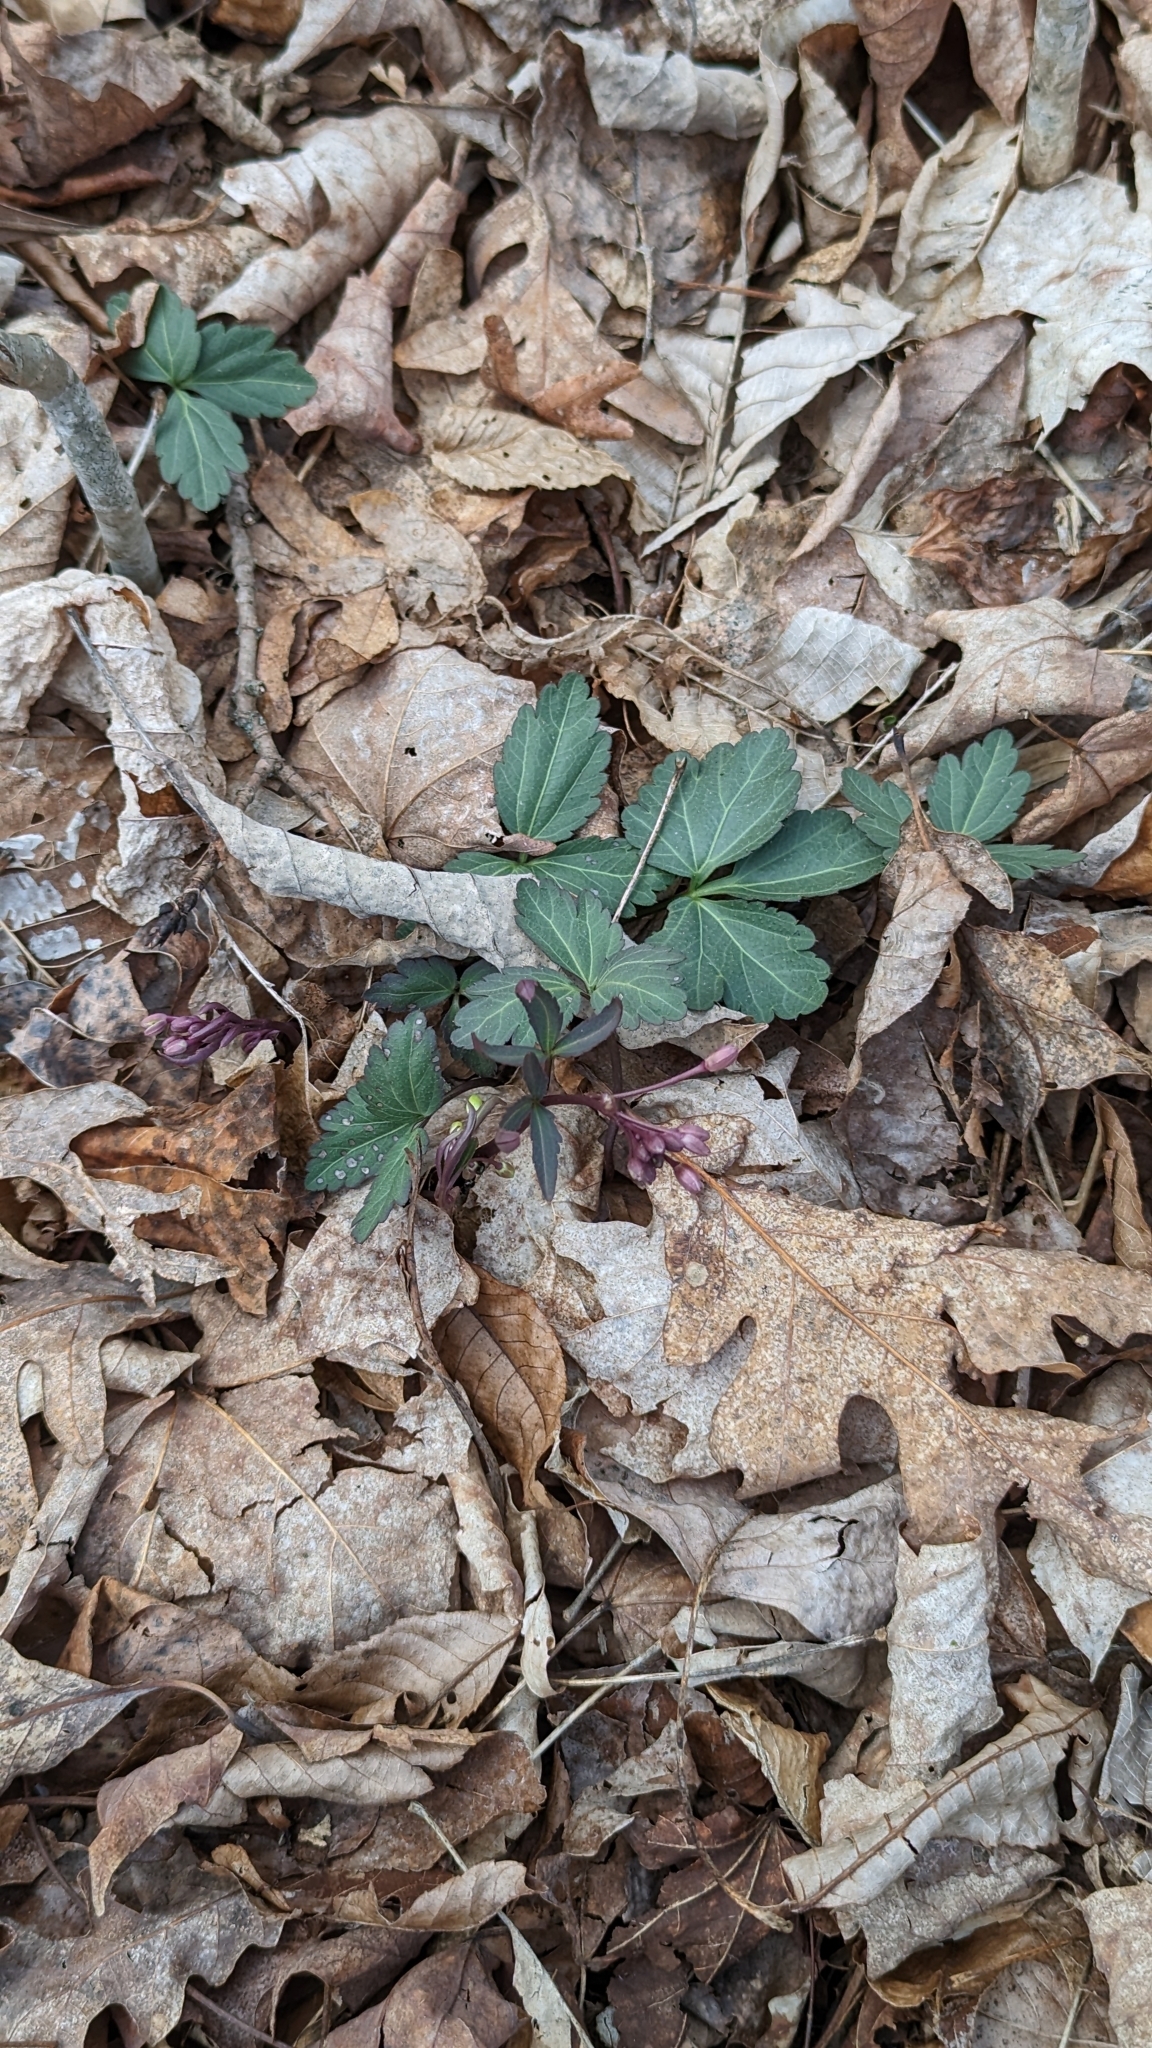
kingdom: Plantae
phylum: Tracheophyta
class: Magnoliopsida
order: Brassicales
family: Brassicaceae
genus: Cardamine
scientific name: Cardamine angustata
